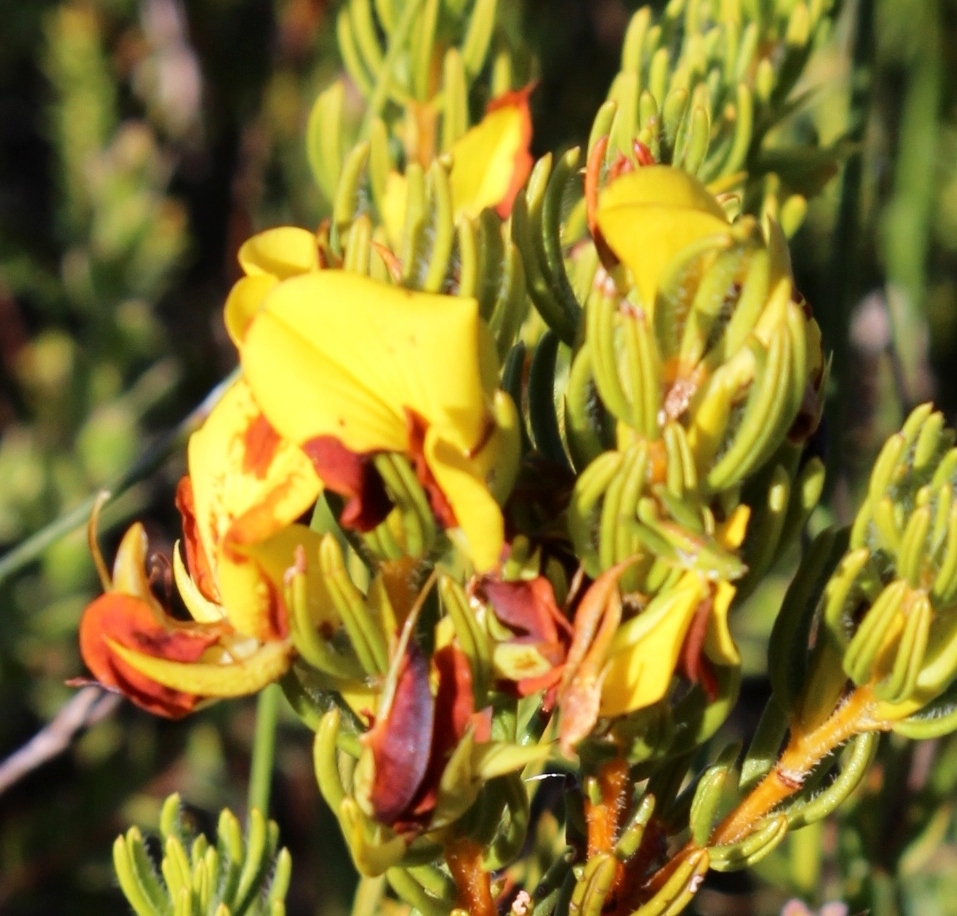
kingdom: Plantae
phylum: Tracheophyta
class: Magnoliopsida
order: Fabales
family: Fabaceae
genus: Cyclopia
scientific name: Cyclopia galioides
